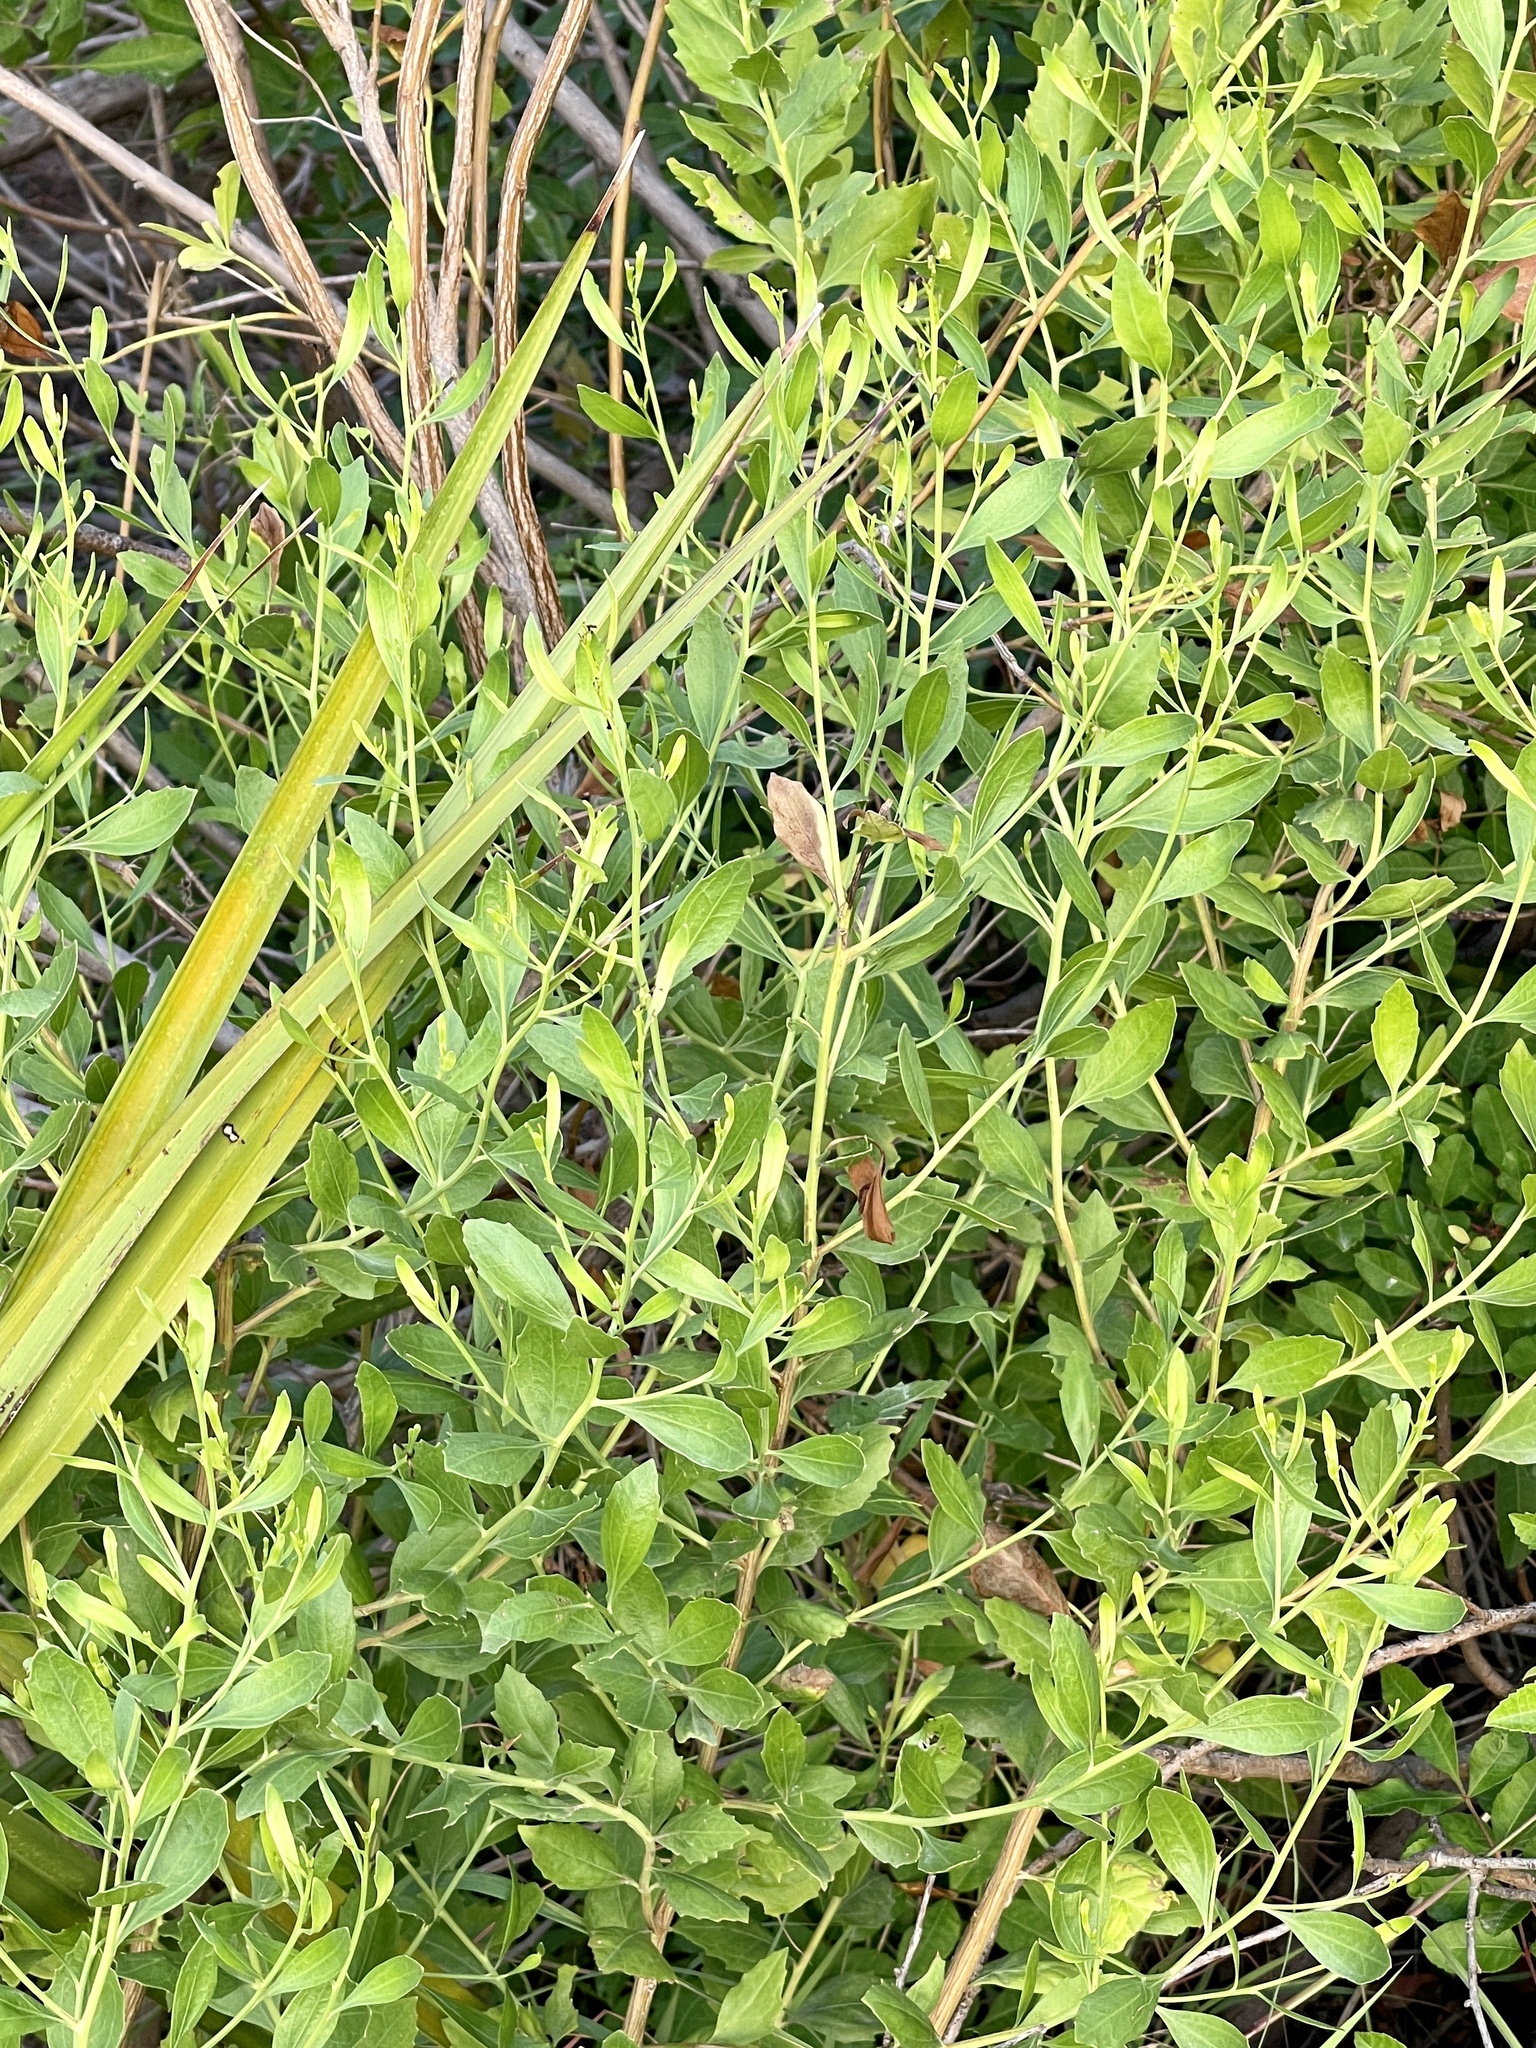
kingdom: Plantae
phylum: Tracheophyta
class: Magnoliopsida
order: Asterales
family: Asteraceae
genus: Baccharis
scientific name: Baccharis halimifolia
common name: Eastern baccharis
